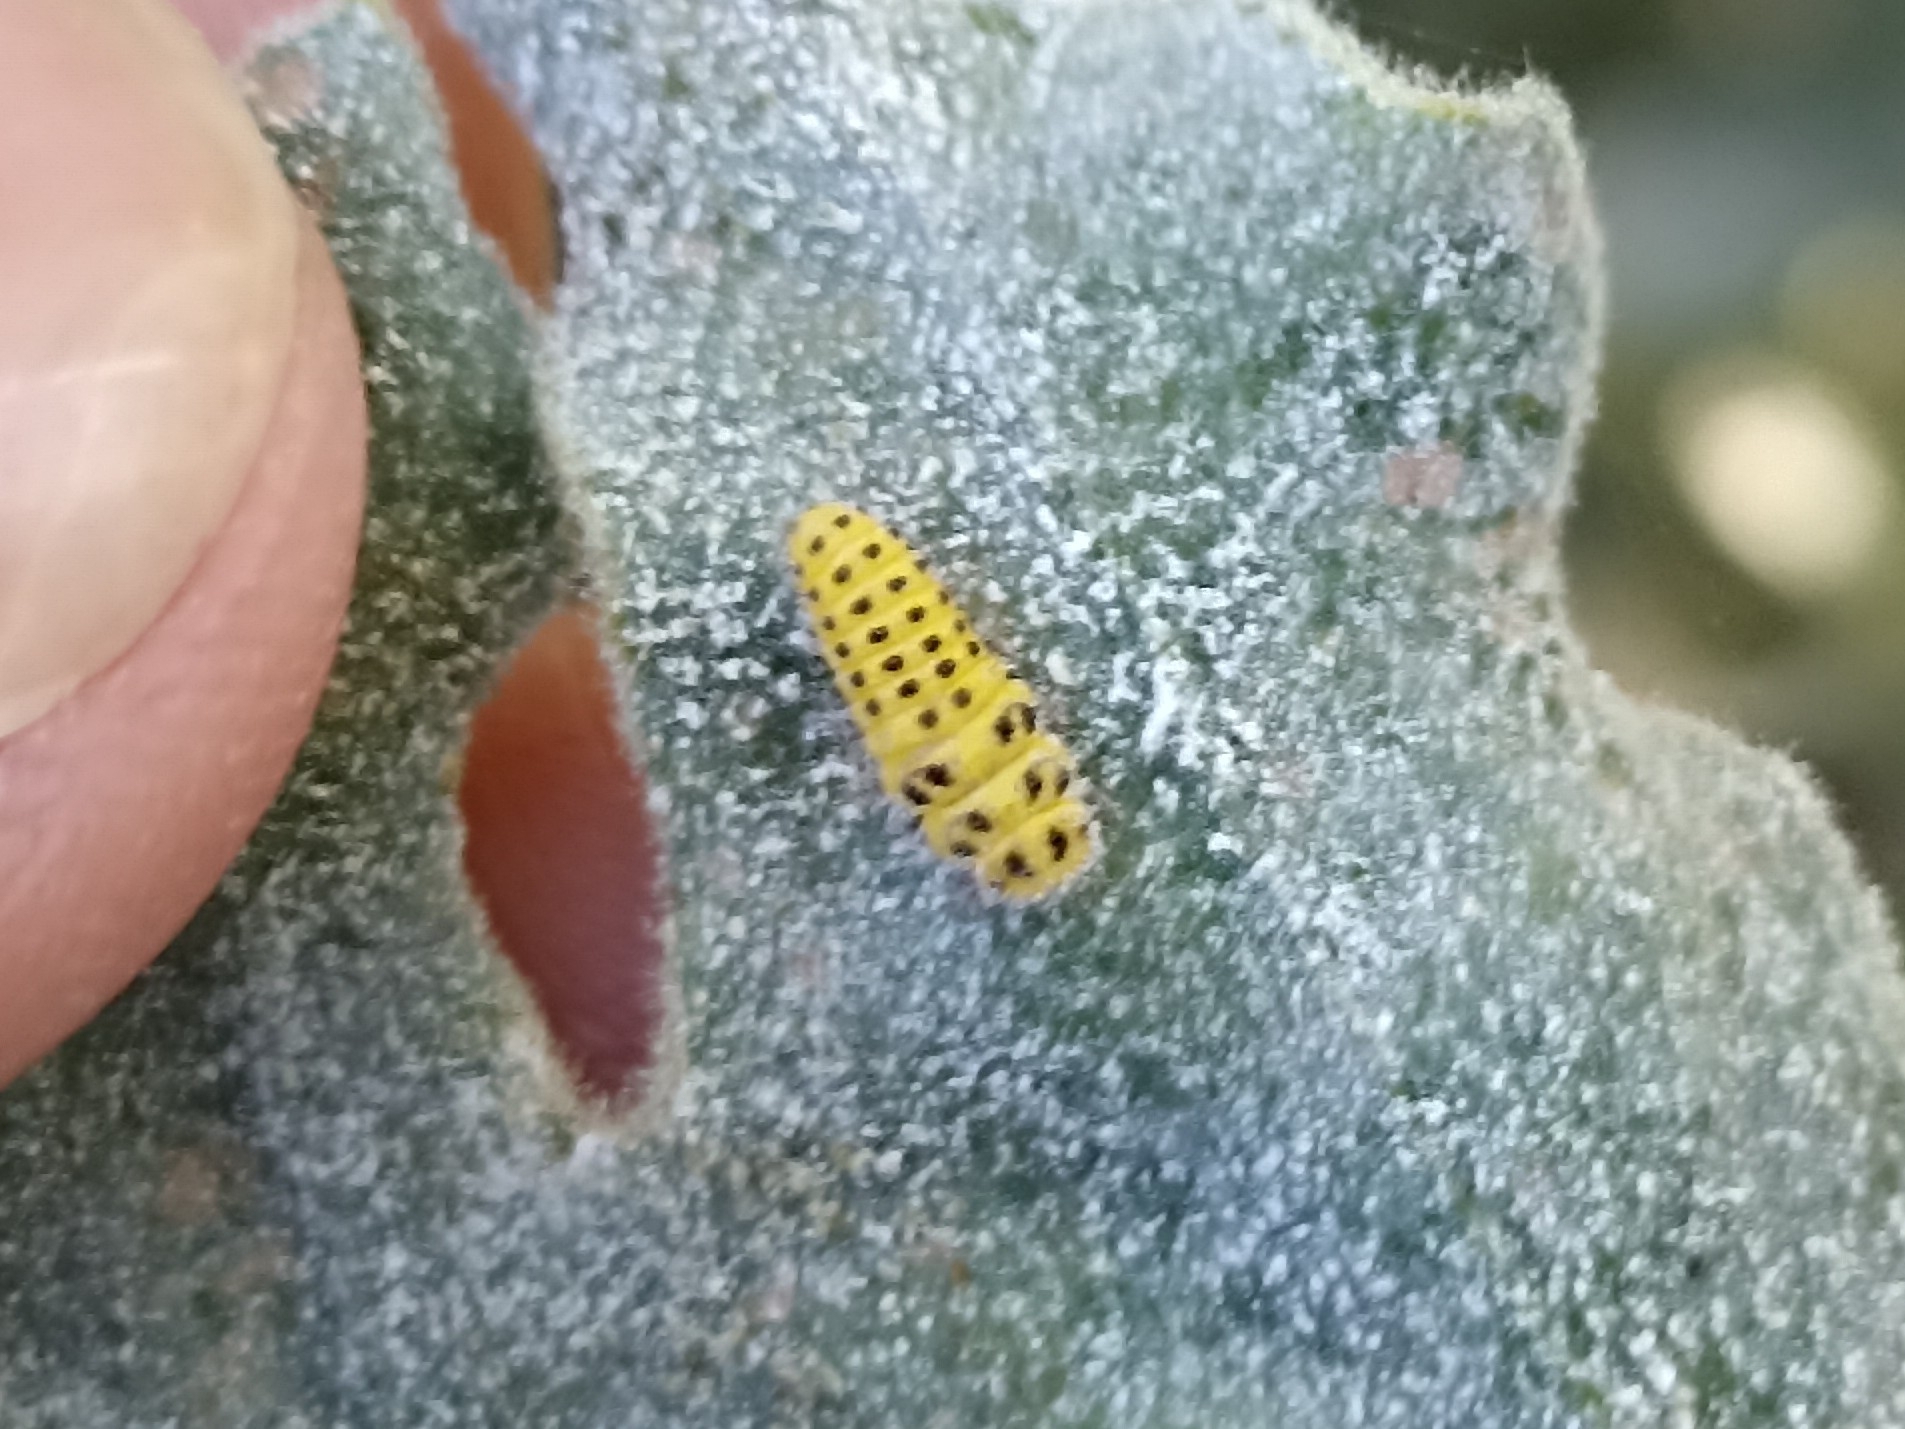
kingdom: Animalia
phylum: Arthropoda
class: Insecta
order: Coleoptera
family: Coccinellidae
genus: Psyllobora
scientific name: Psyllobora vigintiduopunctata
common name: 22-spot ladybird
